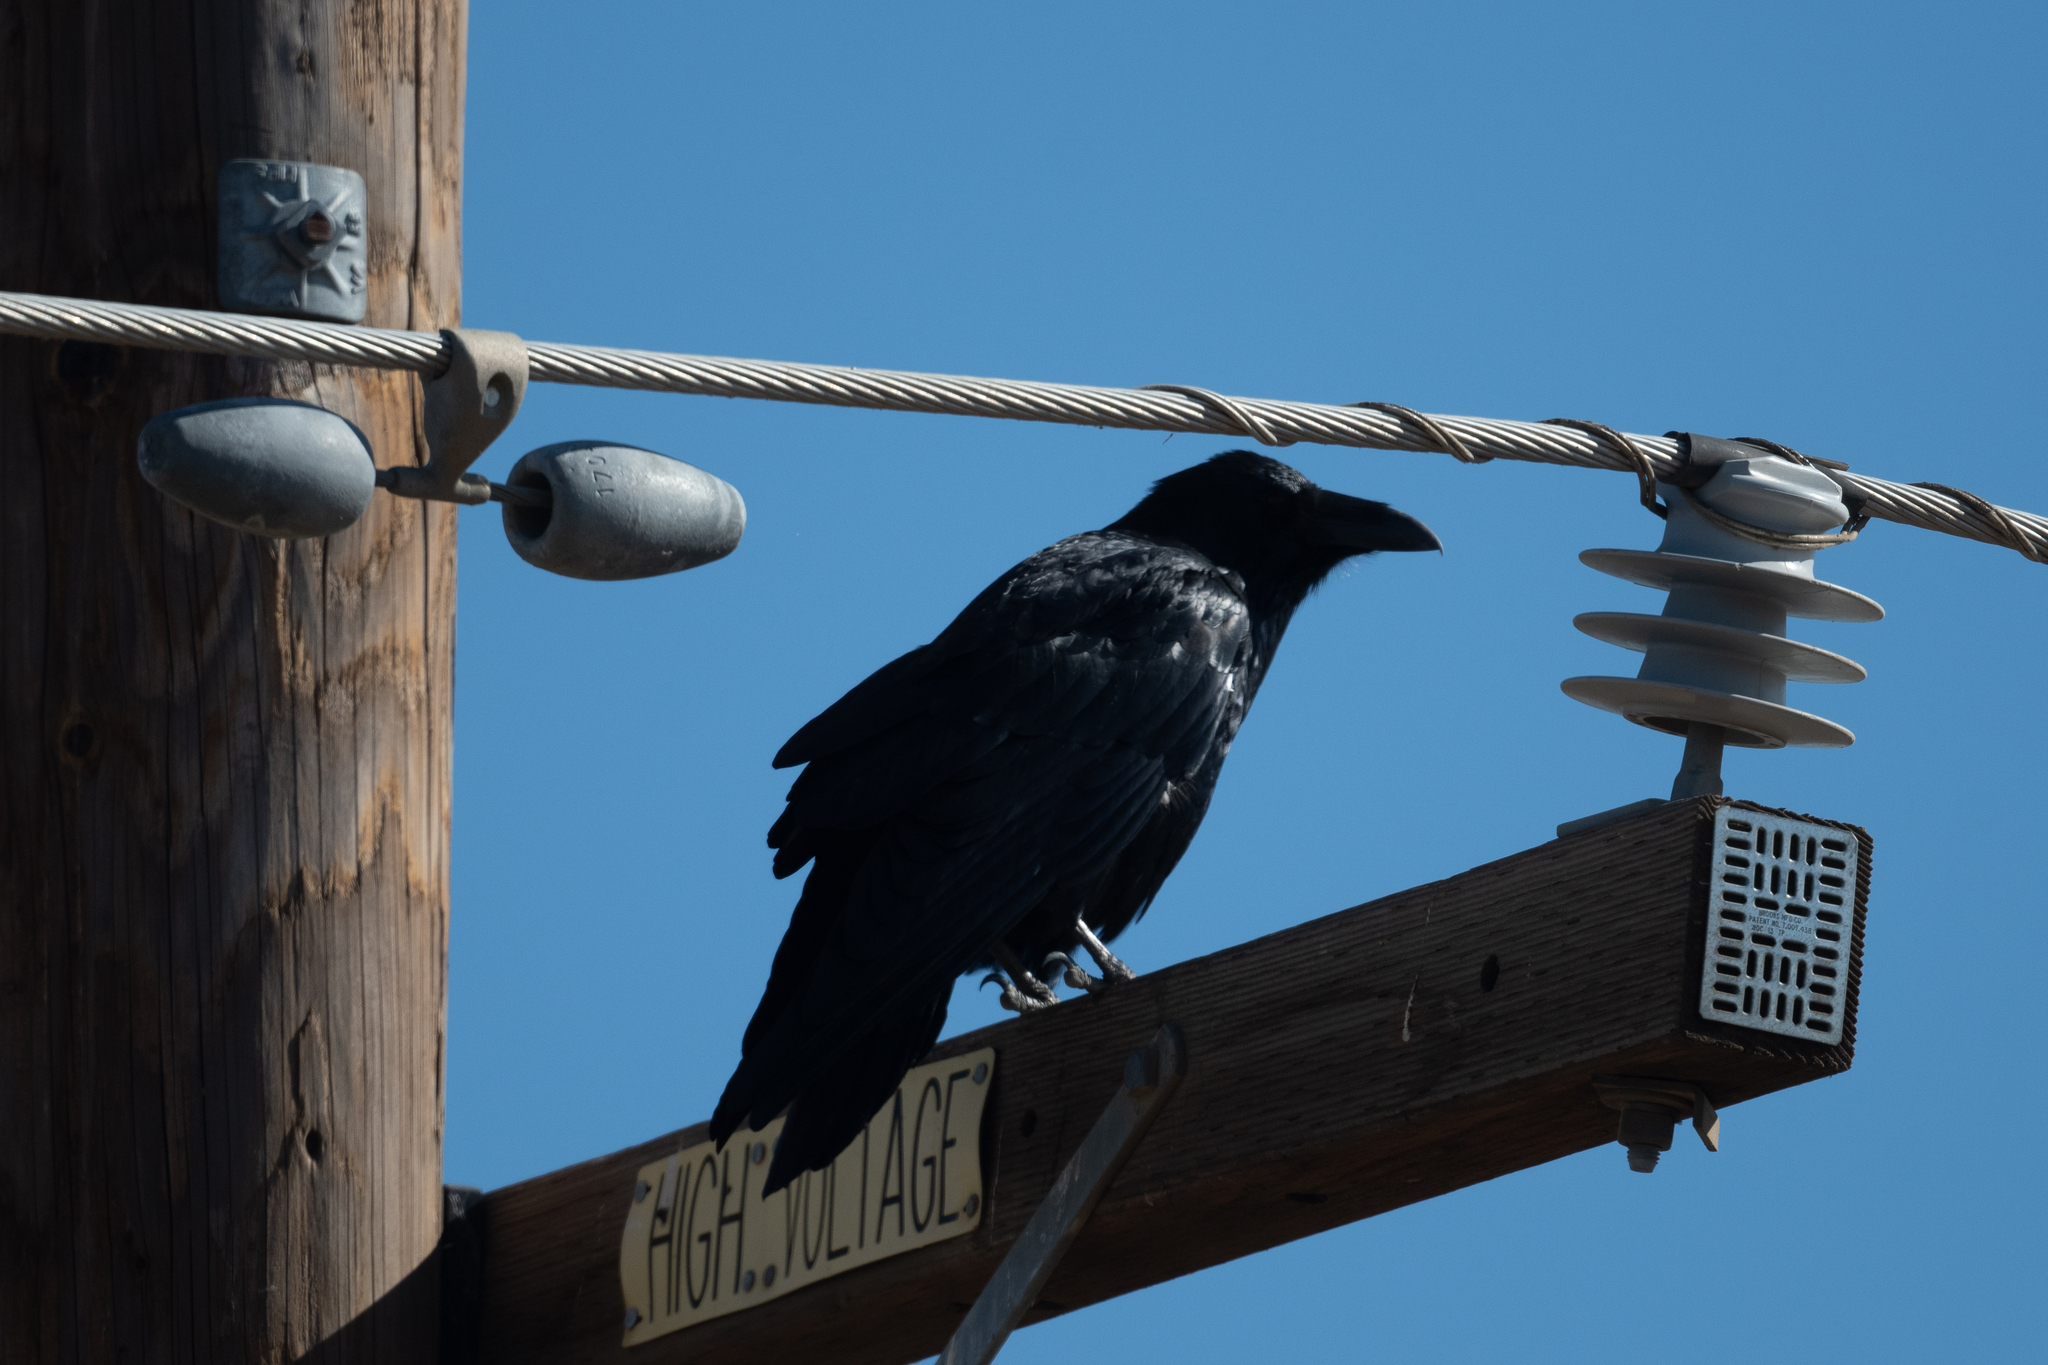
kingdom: Animalia
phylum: Chordata
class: Aves
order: Passeriformes
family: Corvidae
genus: Corvus
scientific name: Corvus corax
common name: Common raven
